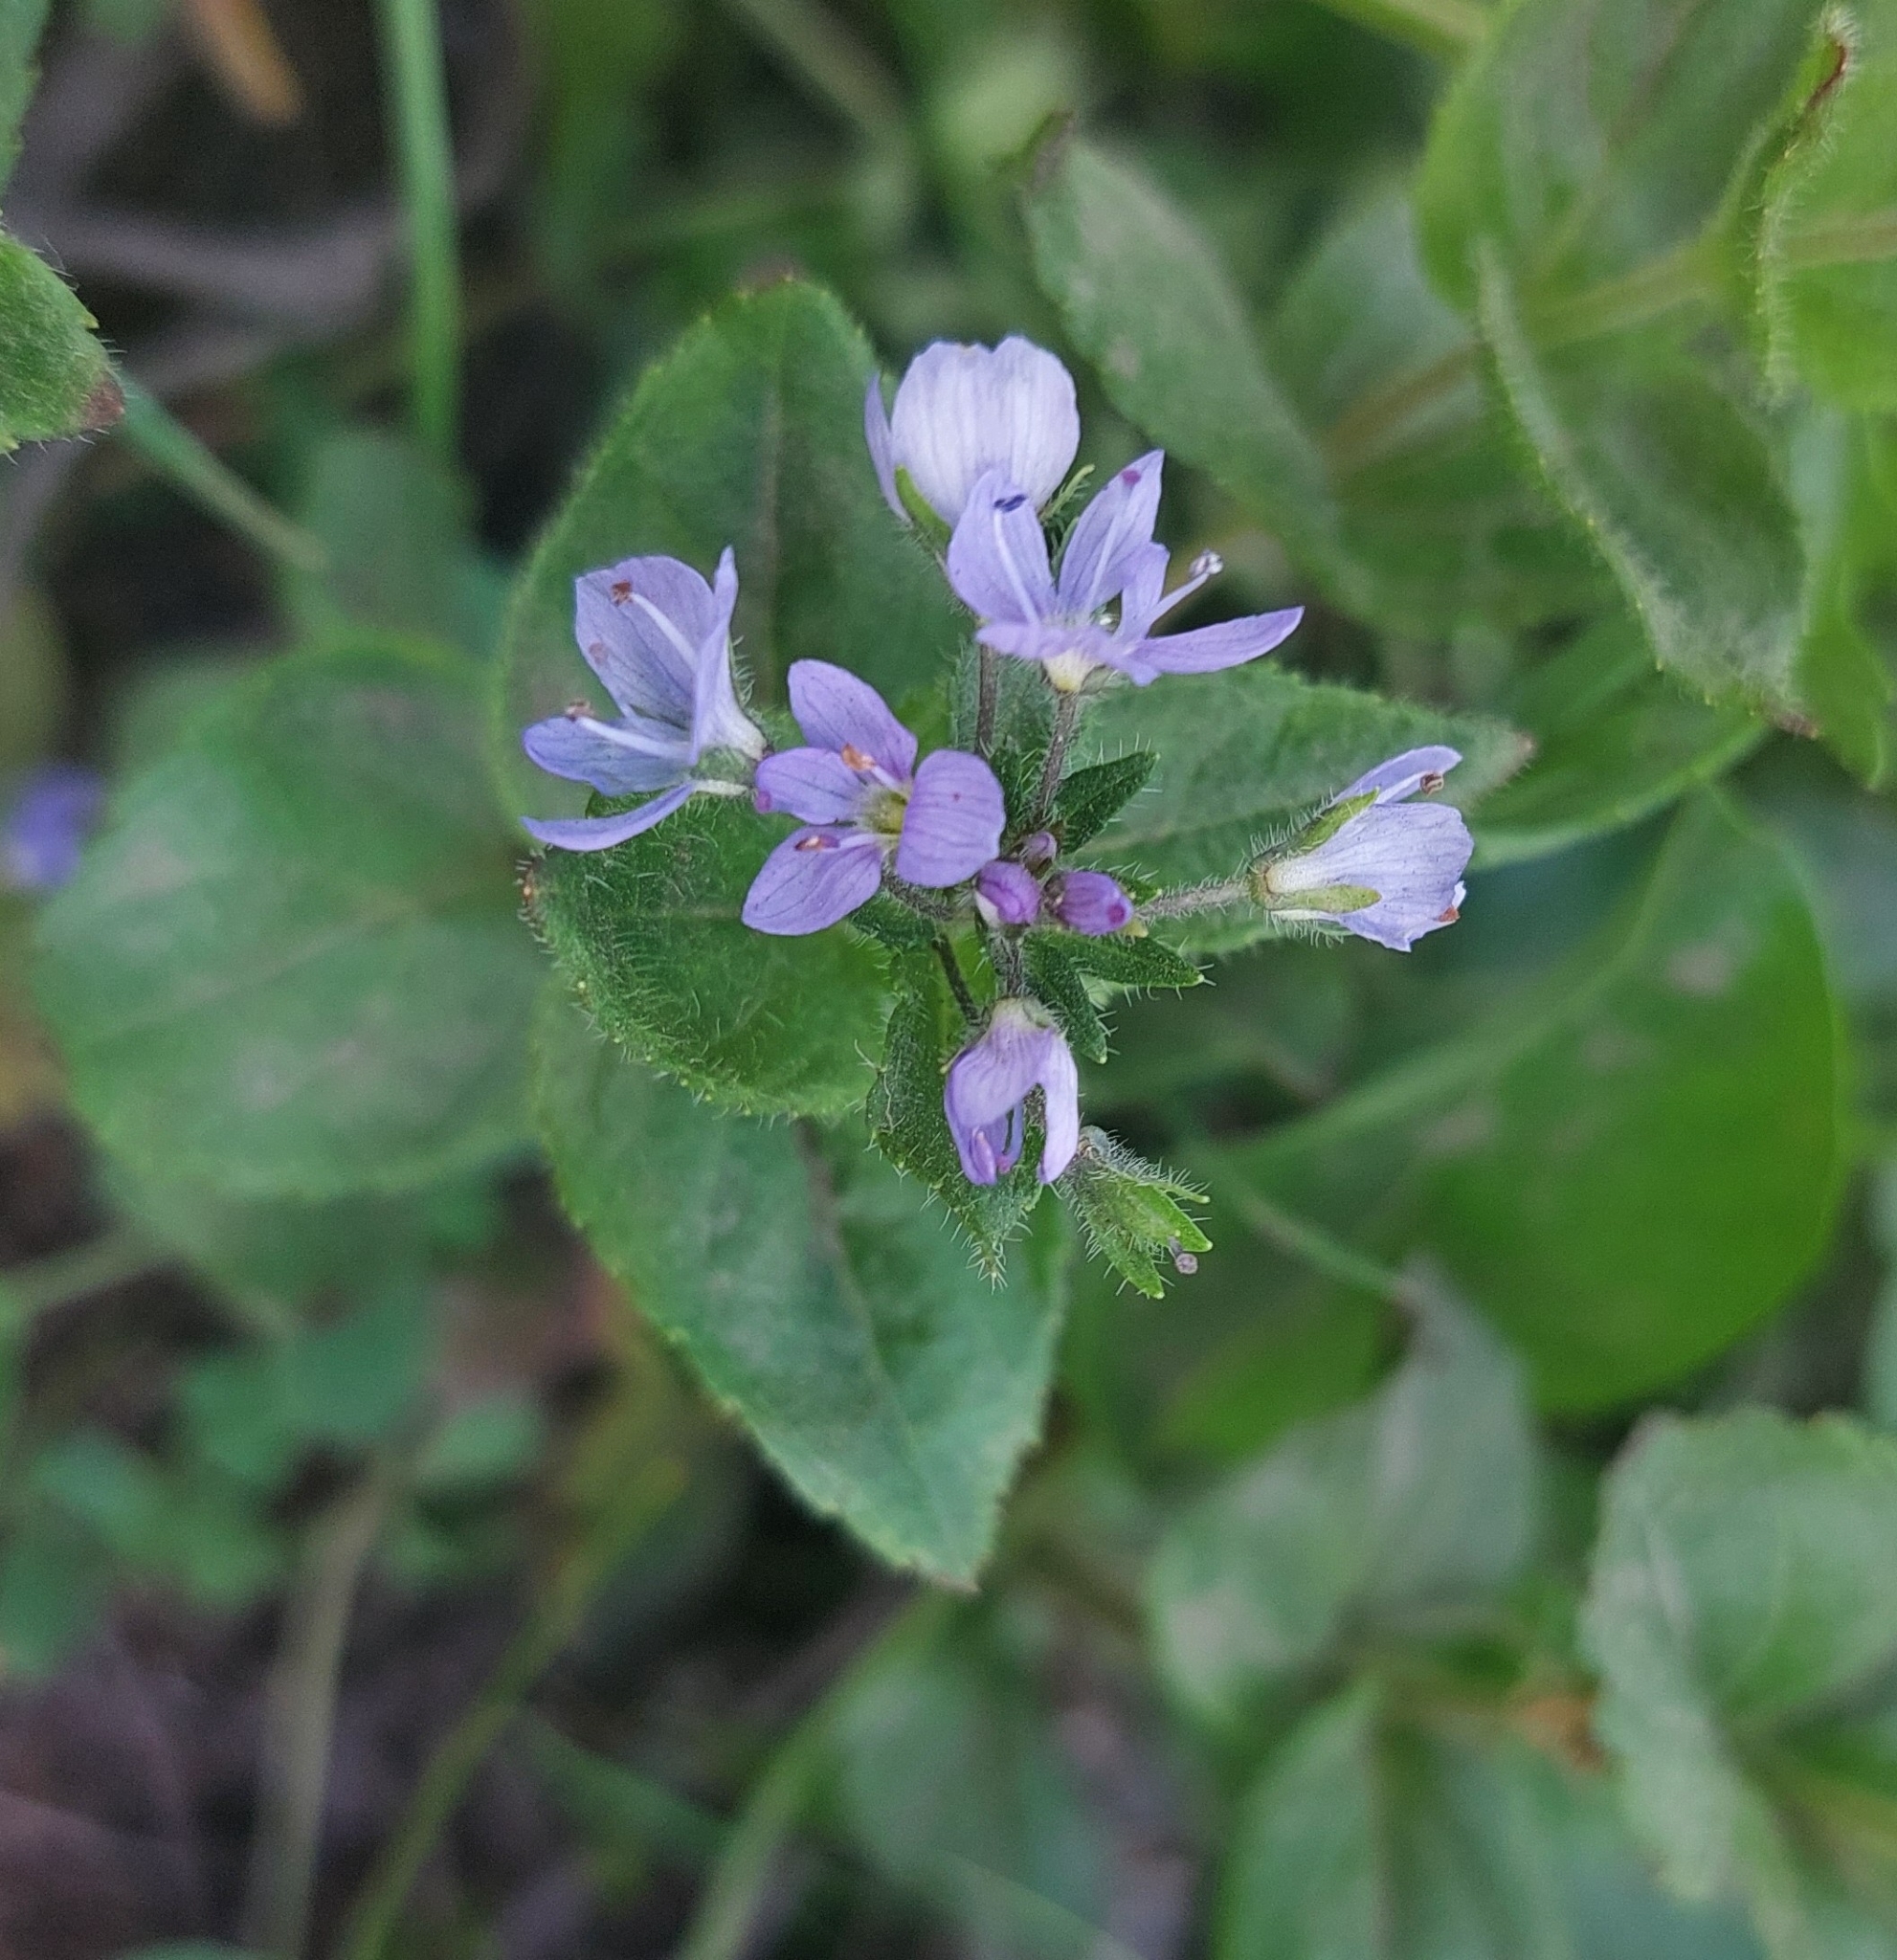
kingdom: Plantae
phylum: Tracheophyta
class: Magnoliopsida
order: Lamiales
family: Plantaginaceae
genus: Veronica
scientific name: Veronica stelleri
